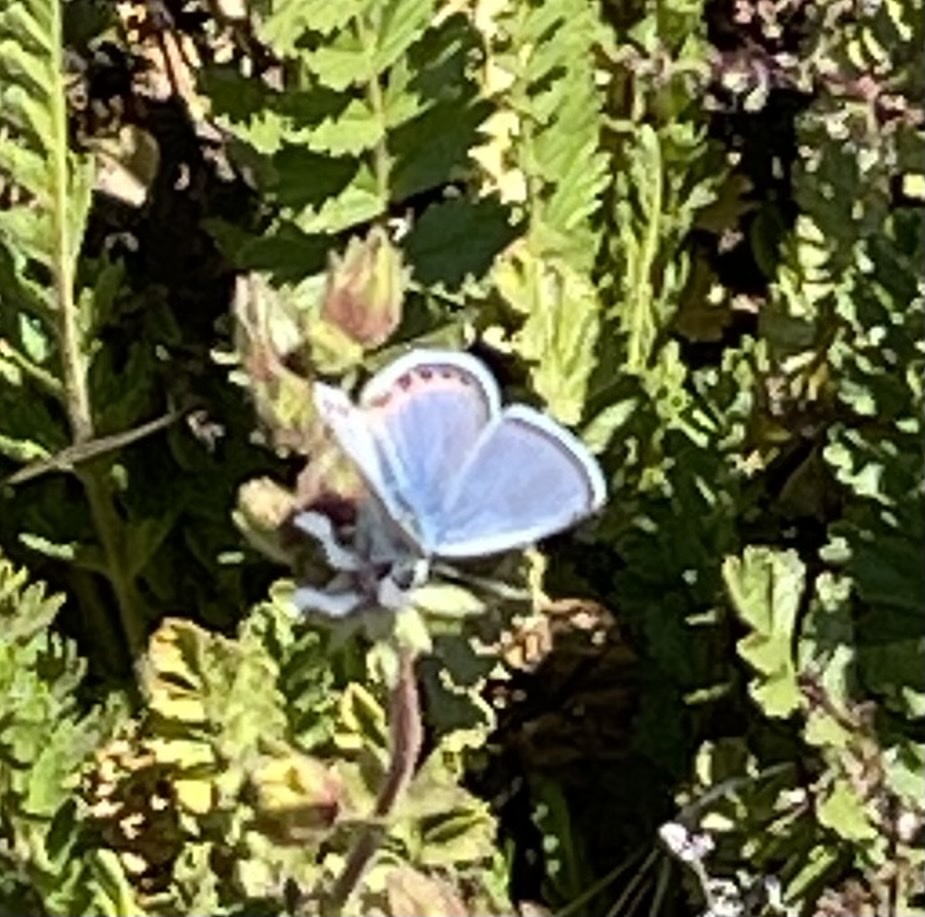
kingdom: Animalia
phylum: Arthropoda
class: Insecta
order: Lepidoptera
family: Lycaenidae
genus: Icaricia
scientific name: Icaricia acmon
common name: Acmon blue
